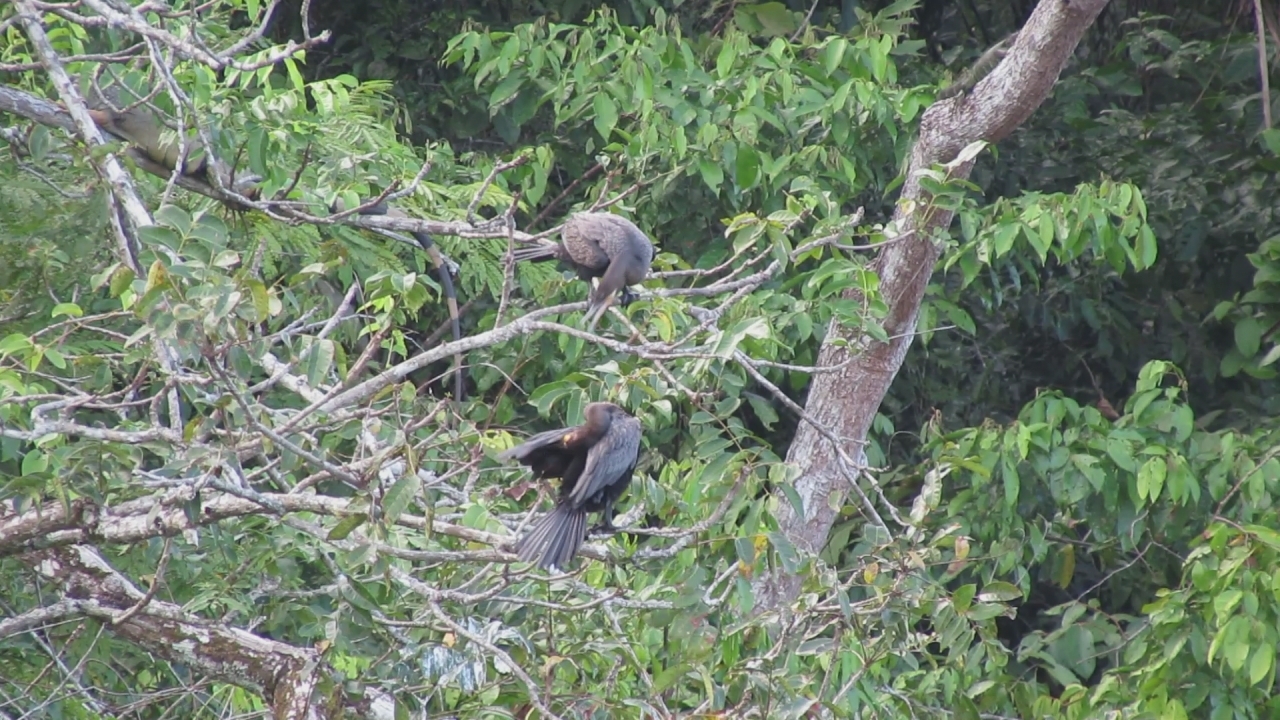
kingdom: Animalia
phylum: Chordata
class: Aves
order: Suliformes
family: Phalacrocoracidae
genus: Phalacrocorax
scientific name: Phalacrocorax brasilianus
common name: Neotropic cormorant
